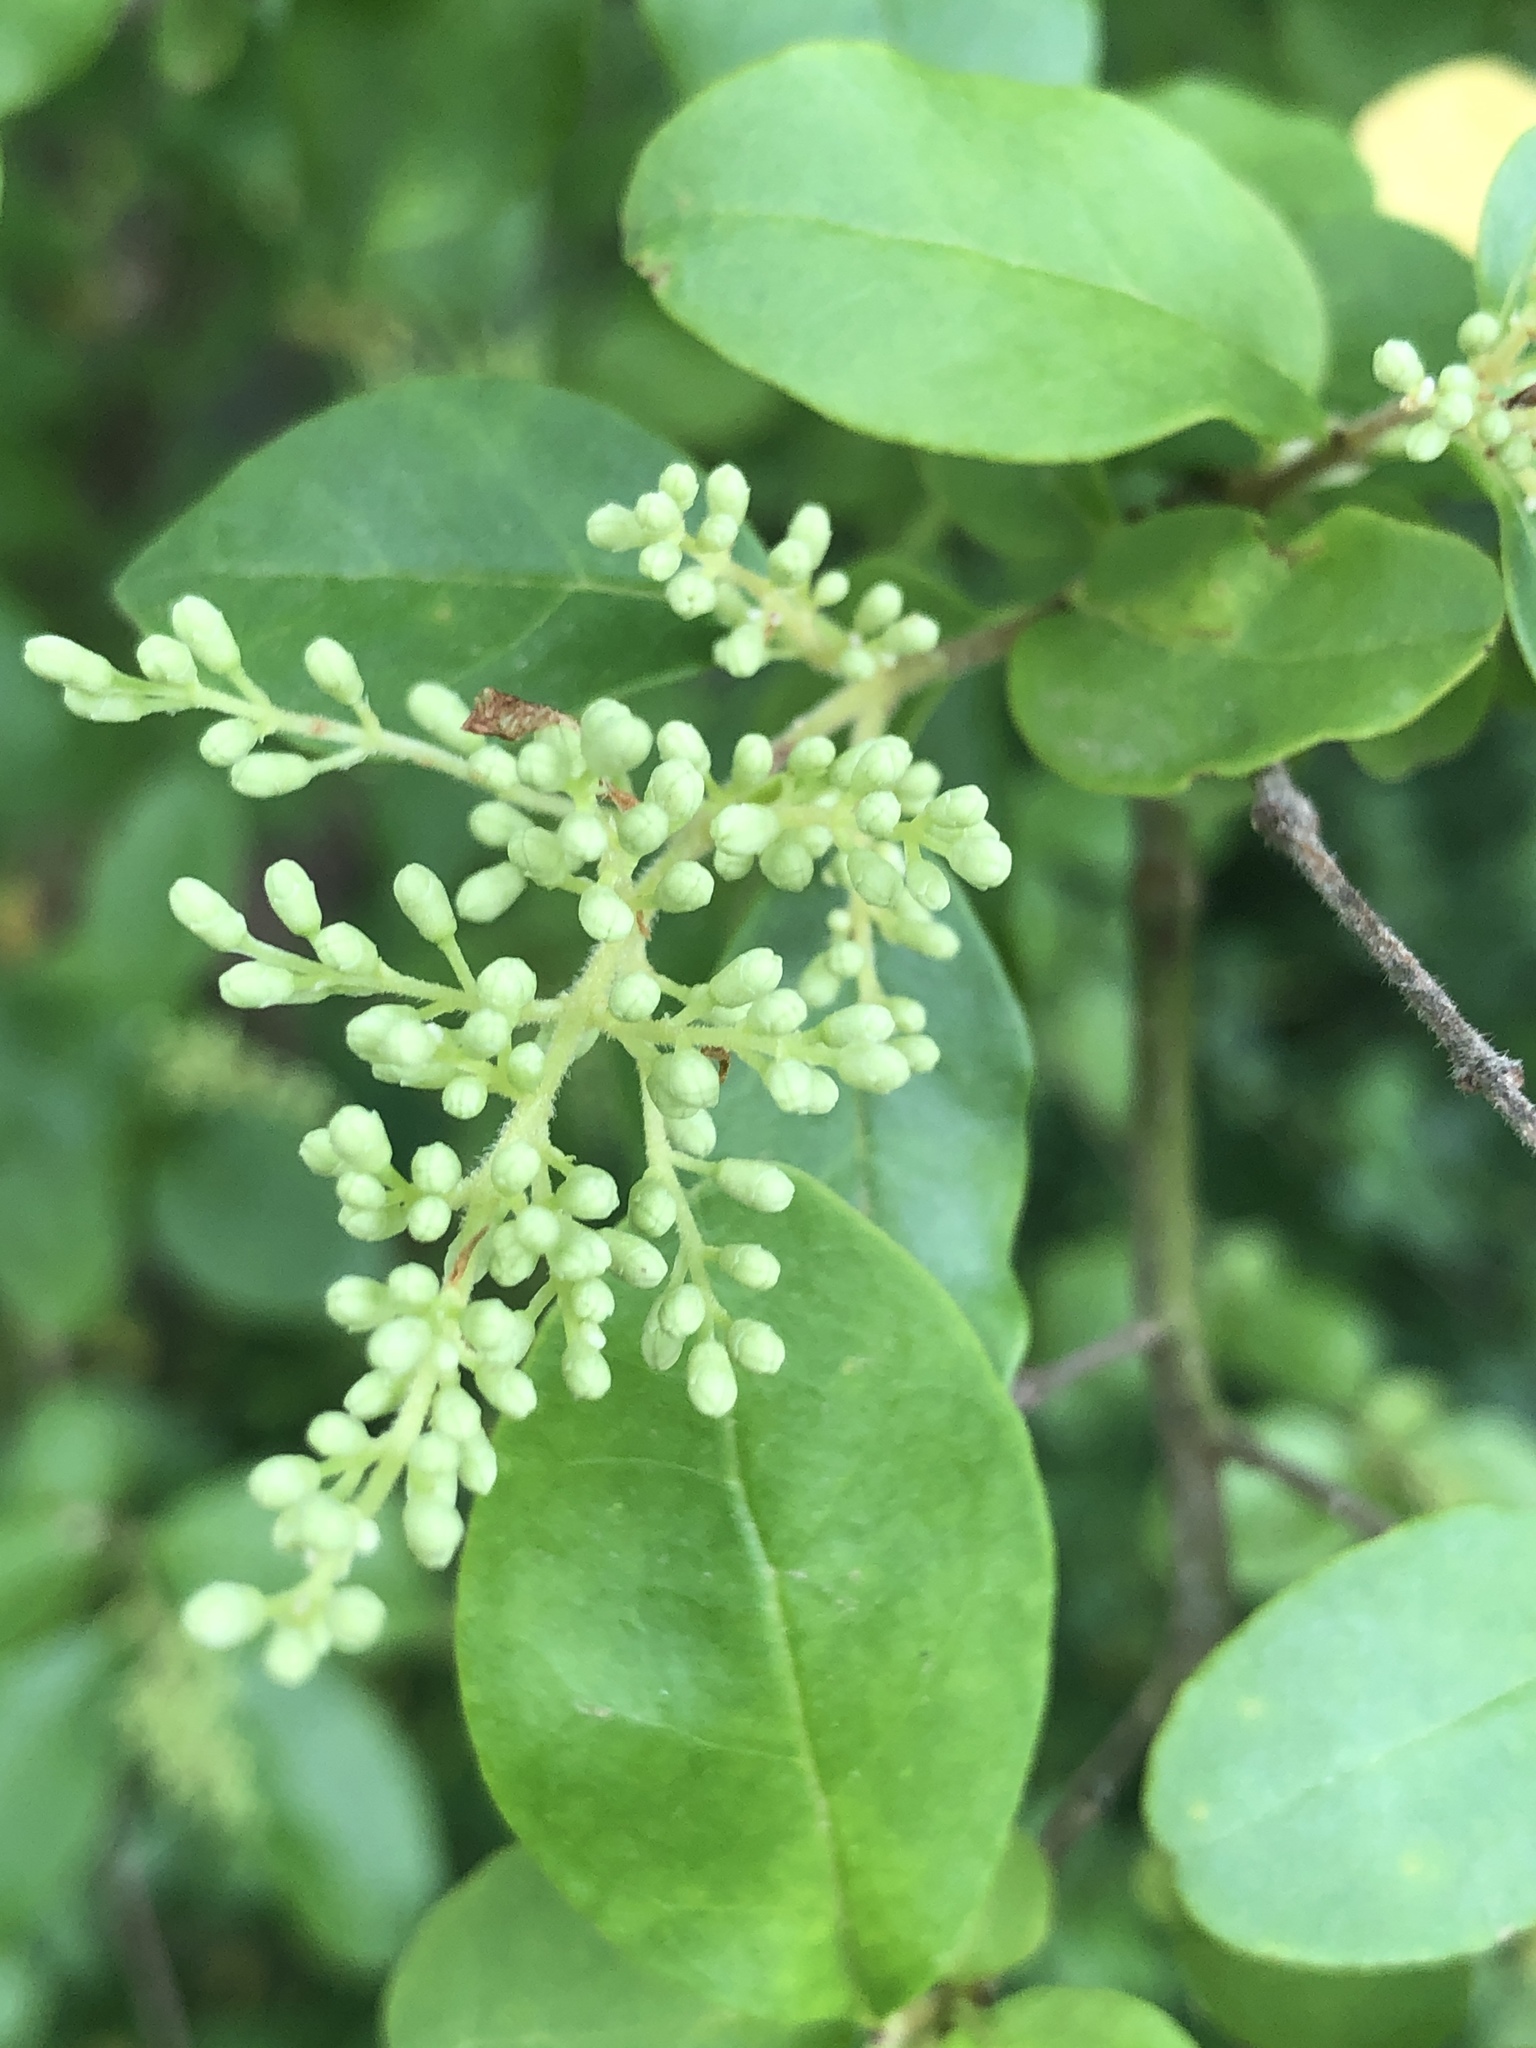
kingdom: Plantae
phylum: Tracheophyta
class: Magnoliopsida
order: Lamiales
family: Oleaceae
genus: Ligustrum
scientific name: Ligustrum sinense
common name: Chinese privet
